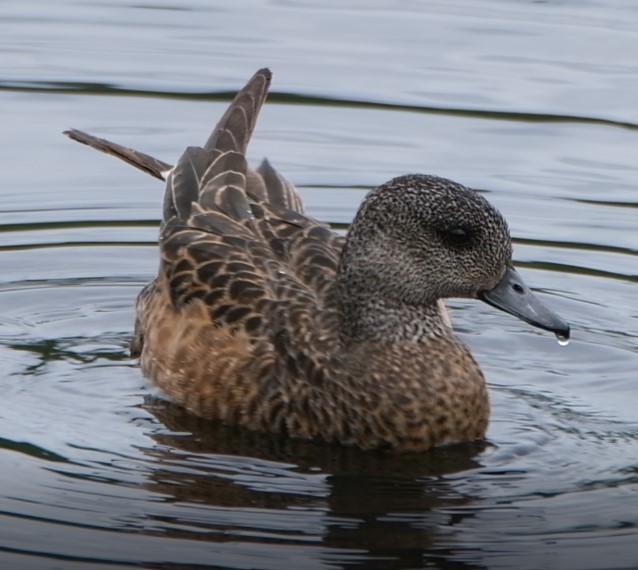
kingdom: Animalia
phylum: Chordata
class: Aves
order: Anseriformes
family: Anatidae
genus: Mareca
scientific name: Mareca americana
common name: American wigeon
